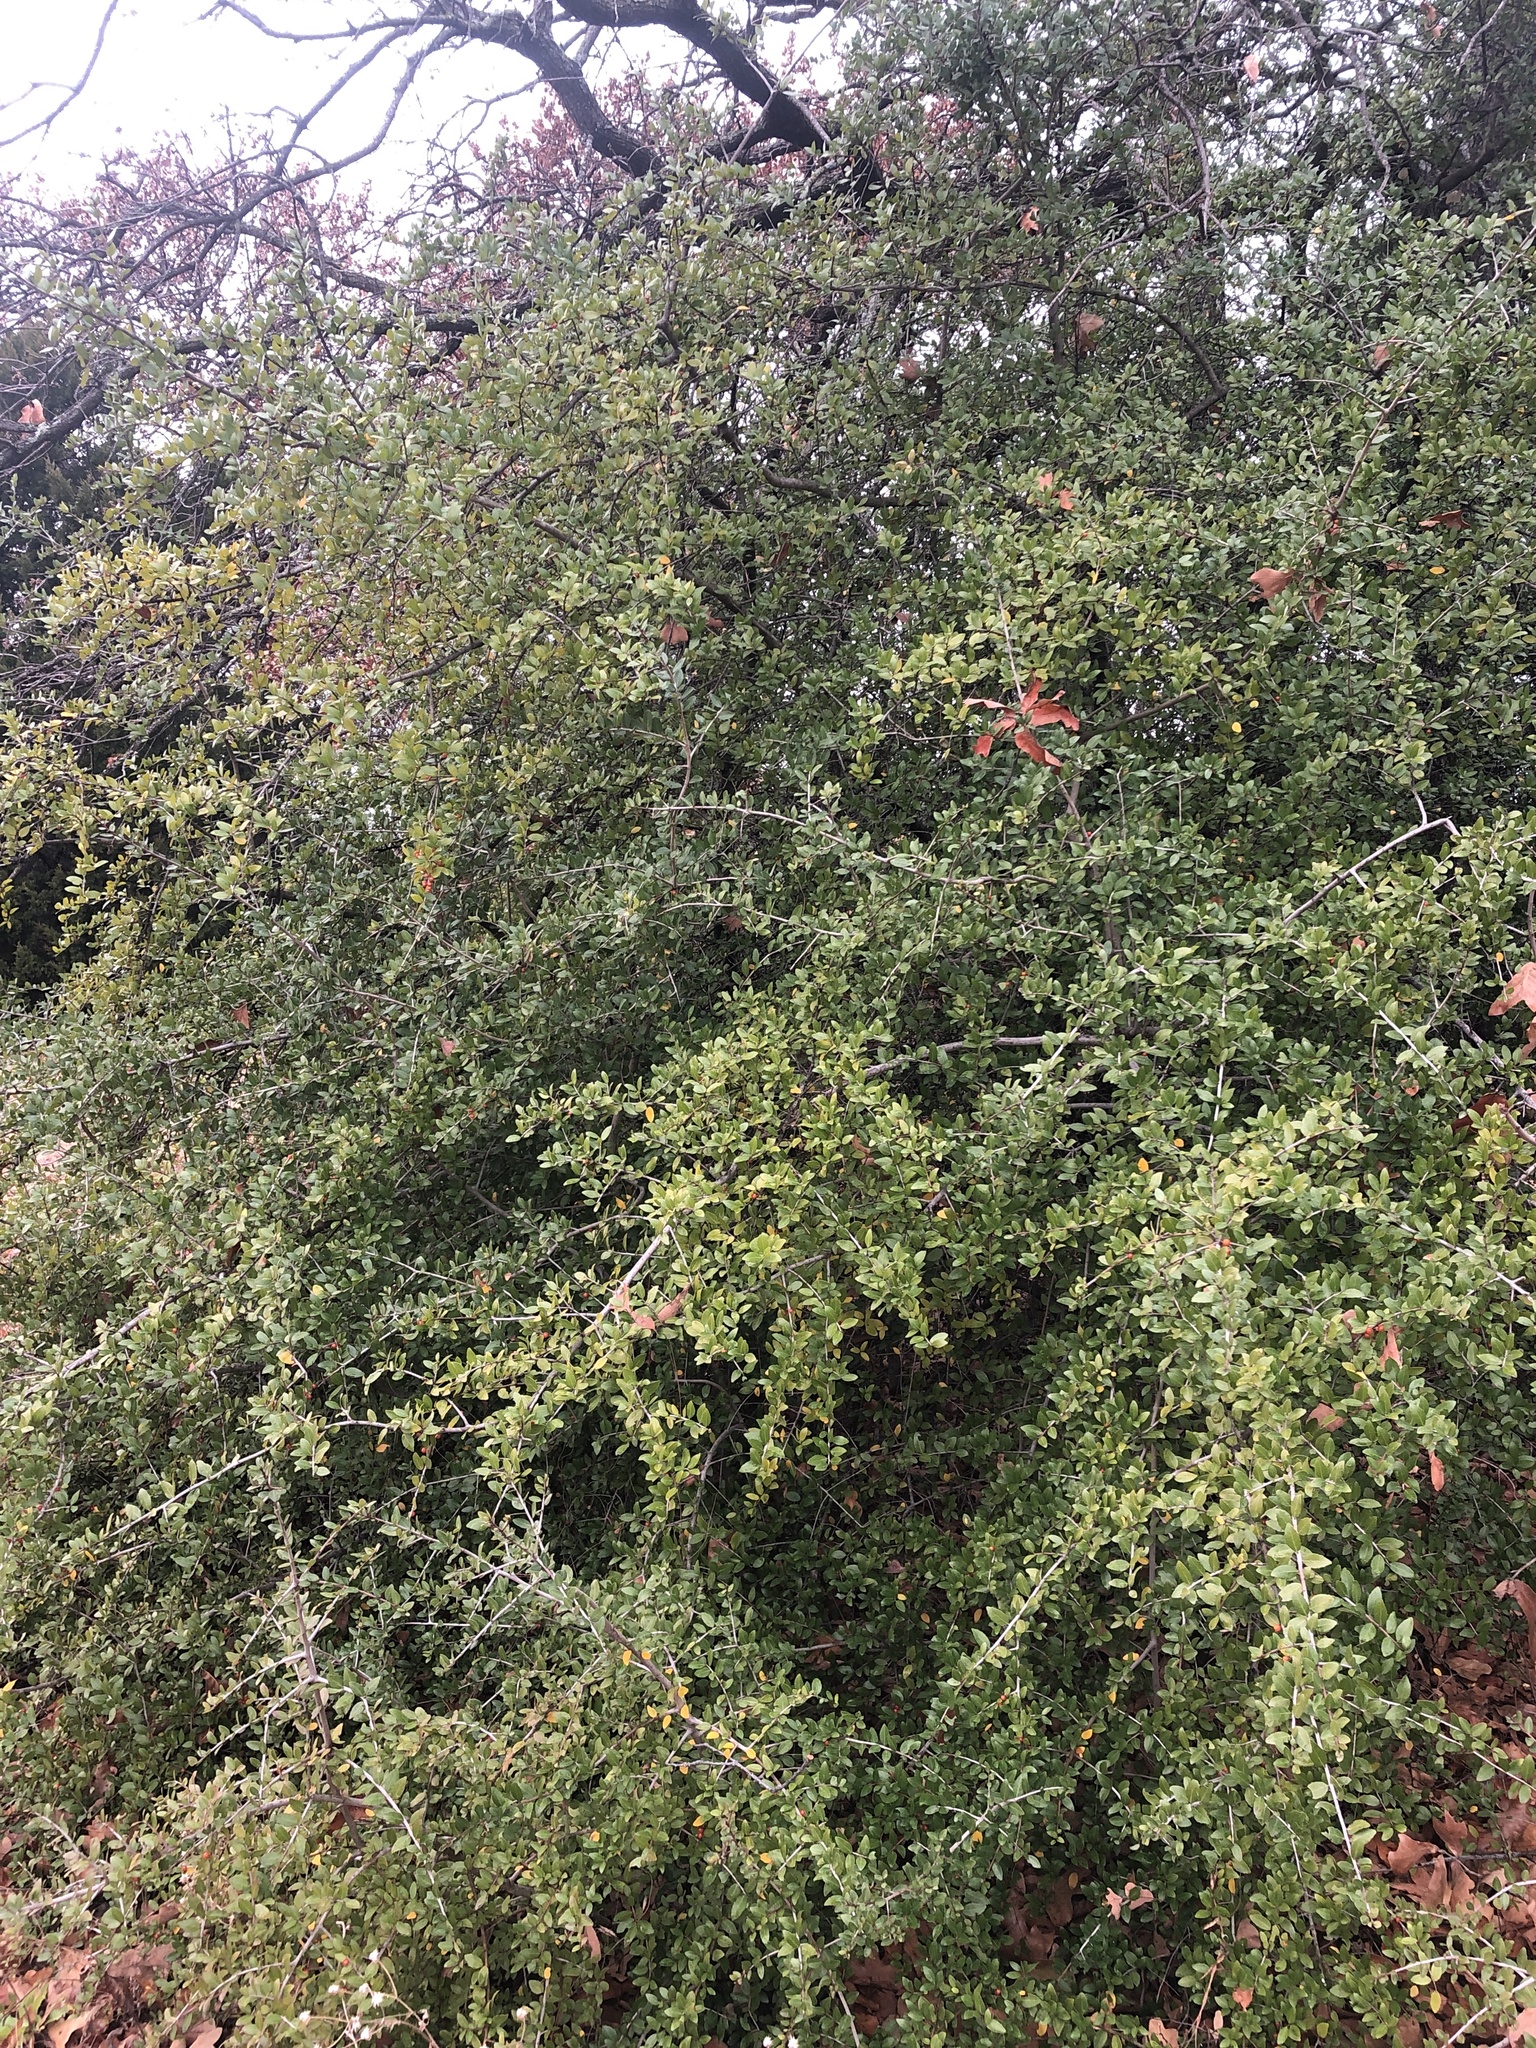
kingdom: Plantae
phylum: Tracheophyta
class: Magnoliopsida
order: Aquifoliales
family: Aquifoliaceae
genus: Ilex
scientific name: Ilex vomitoria
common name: Yaupon holly
